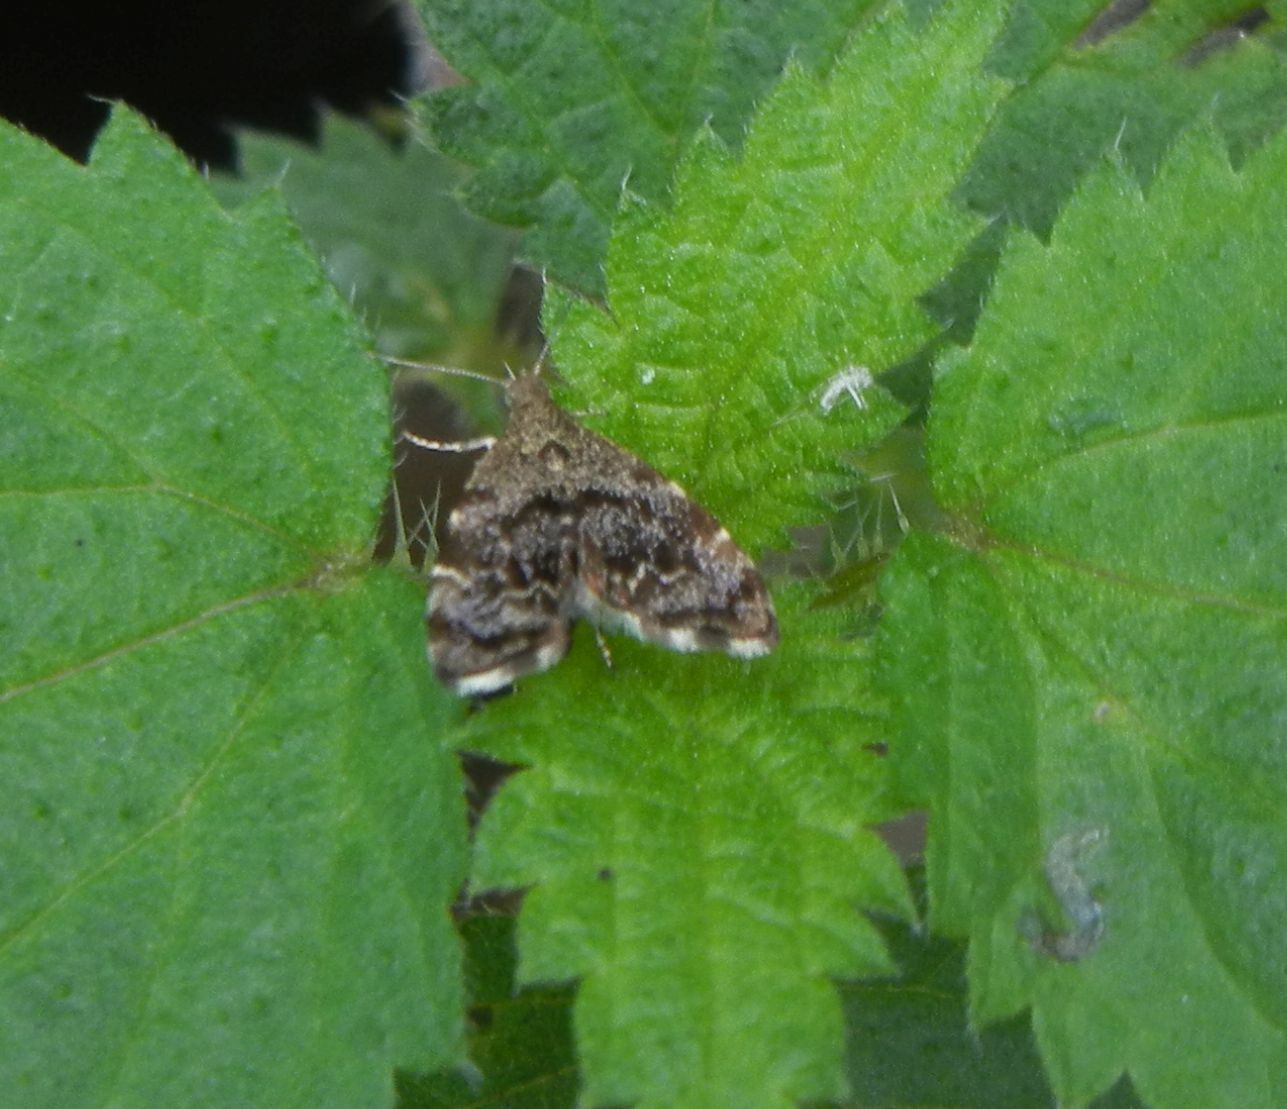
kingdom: Animalia
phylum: Arthropoda
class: Insecta
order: Lepidoptera
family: Choreutidae
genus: Anthophila
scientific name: Anthophila fabriciana
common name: Nettle-tap
